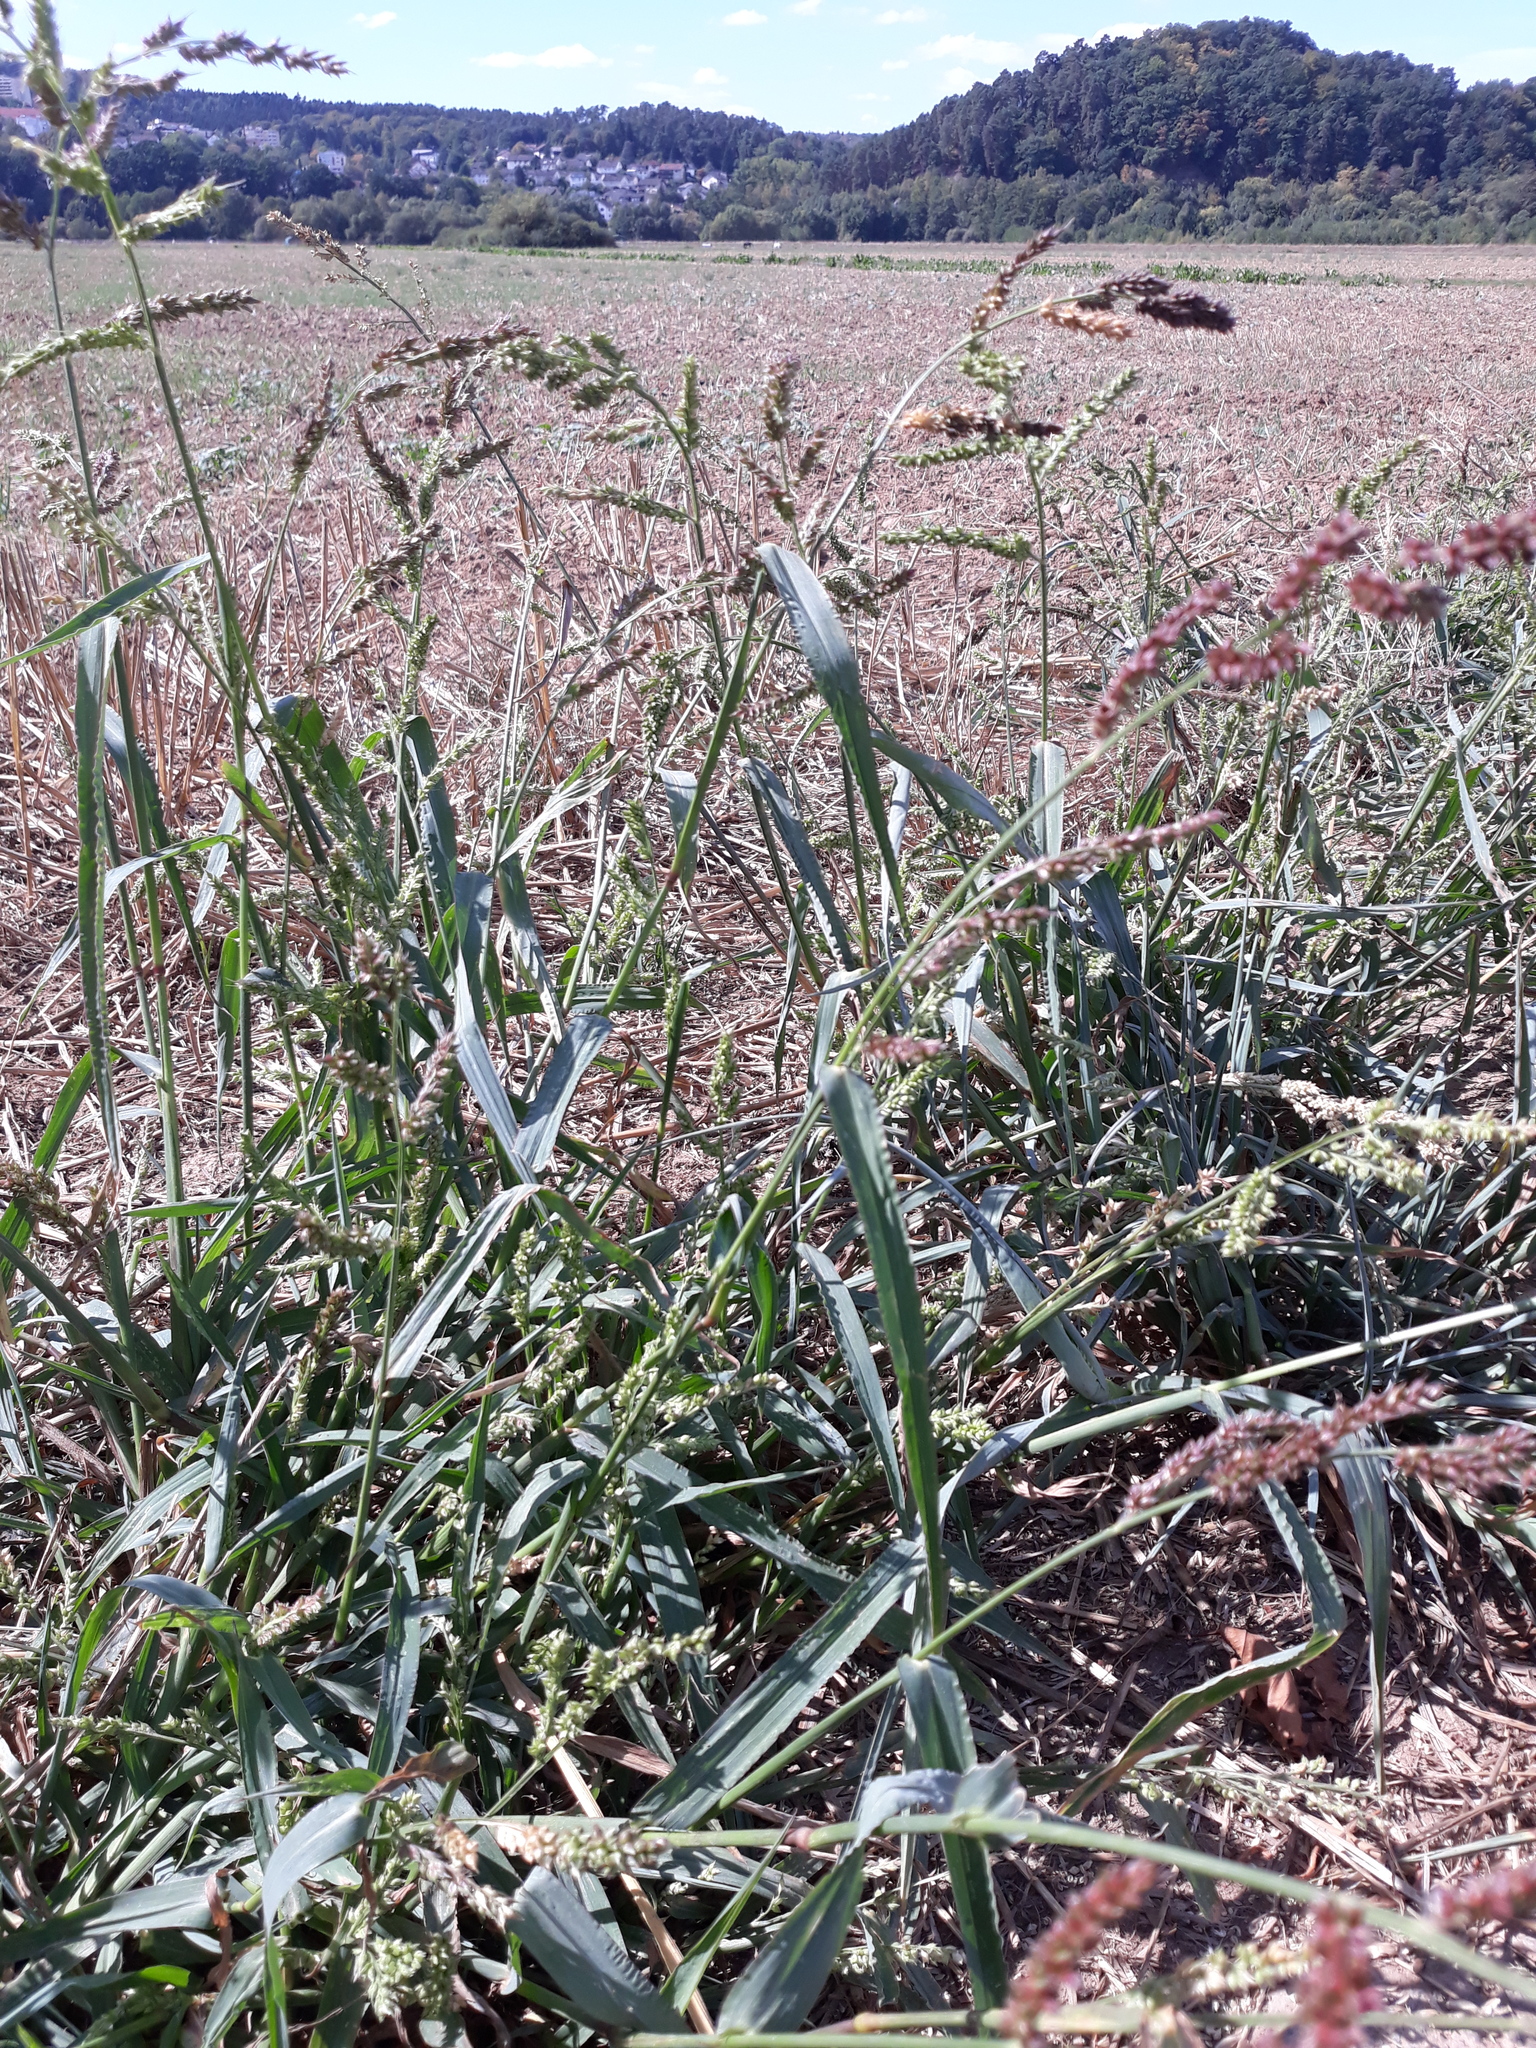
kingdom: Plantae
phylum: Tracheophyta
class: Liliopsida
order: Poales
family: Poaceae
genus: Echinochloa
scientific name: Echinochloa crus-galli
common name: Cockspur
